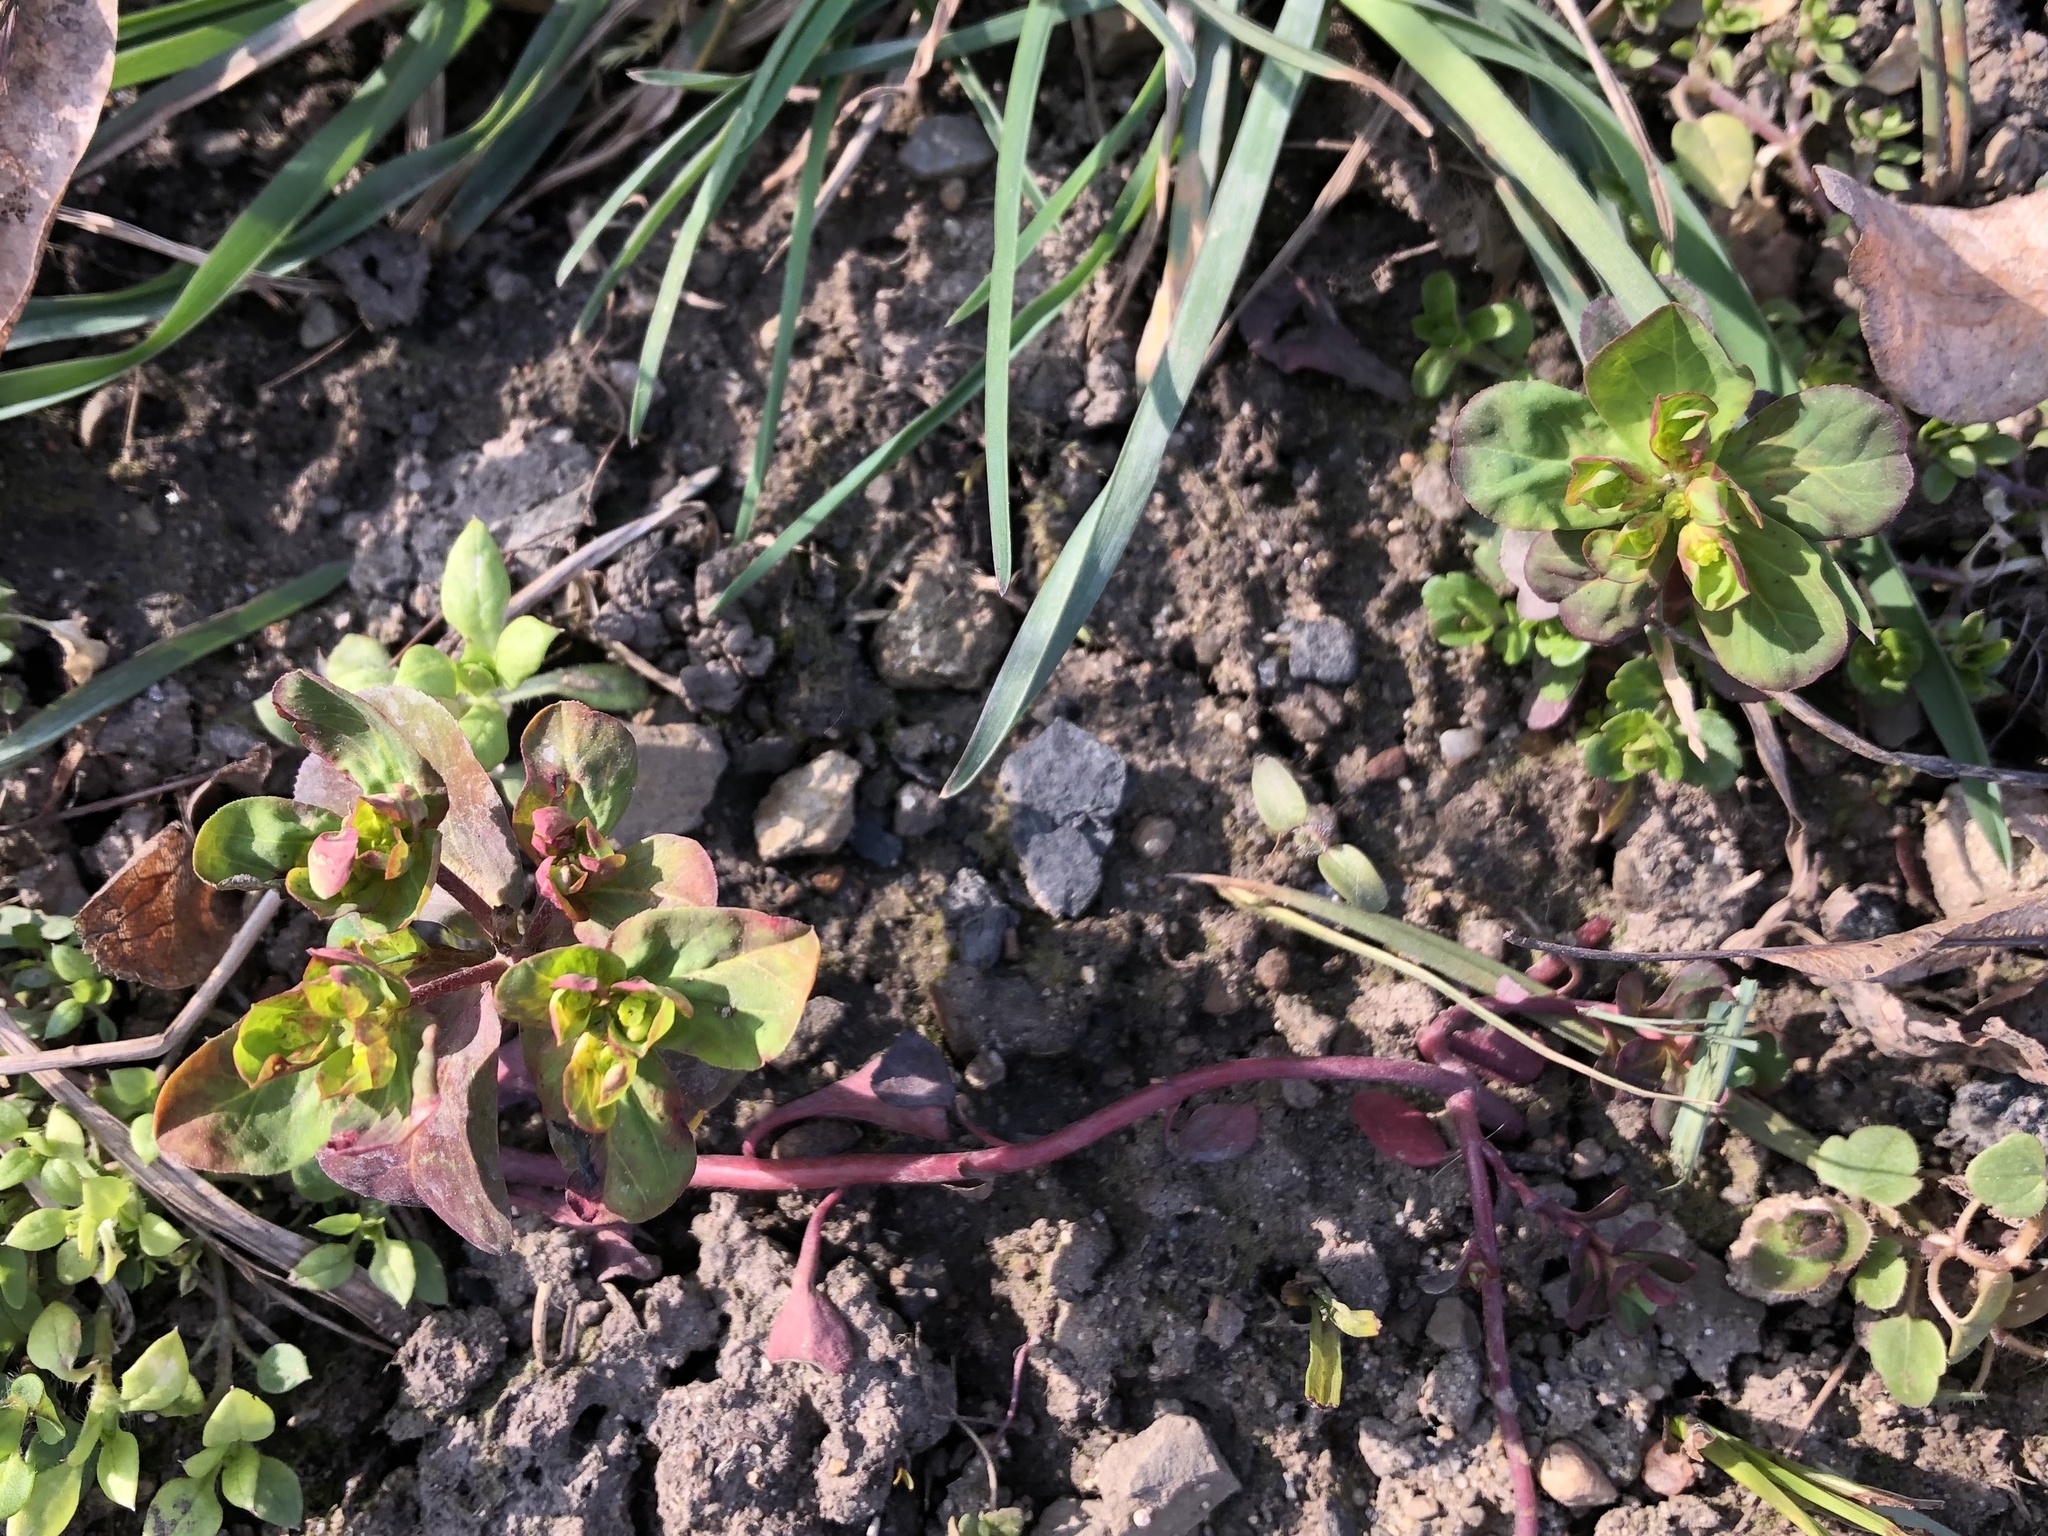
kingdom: Plantae
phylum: Tracheophyta
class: Magnoliopsida
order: Malpighiales
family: Euphorbiaceae
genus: Euphorbia
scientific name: Euphorbia helioscopia
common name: Sun spurge
